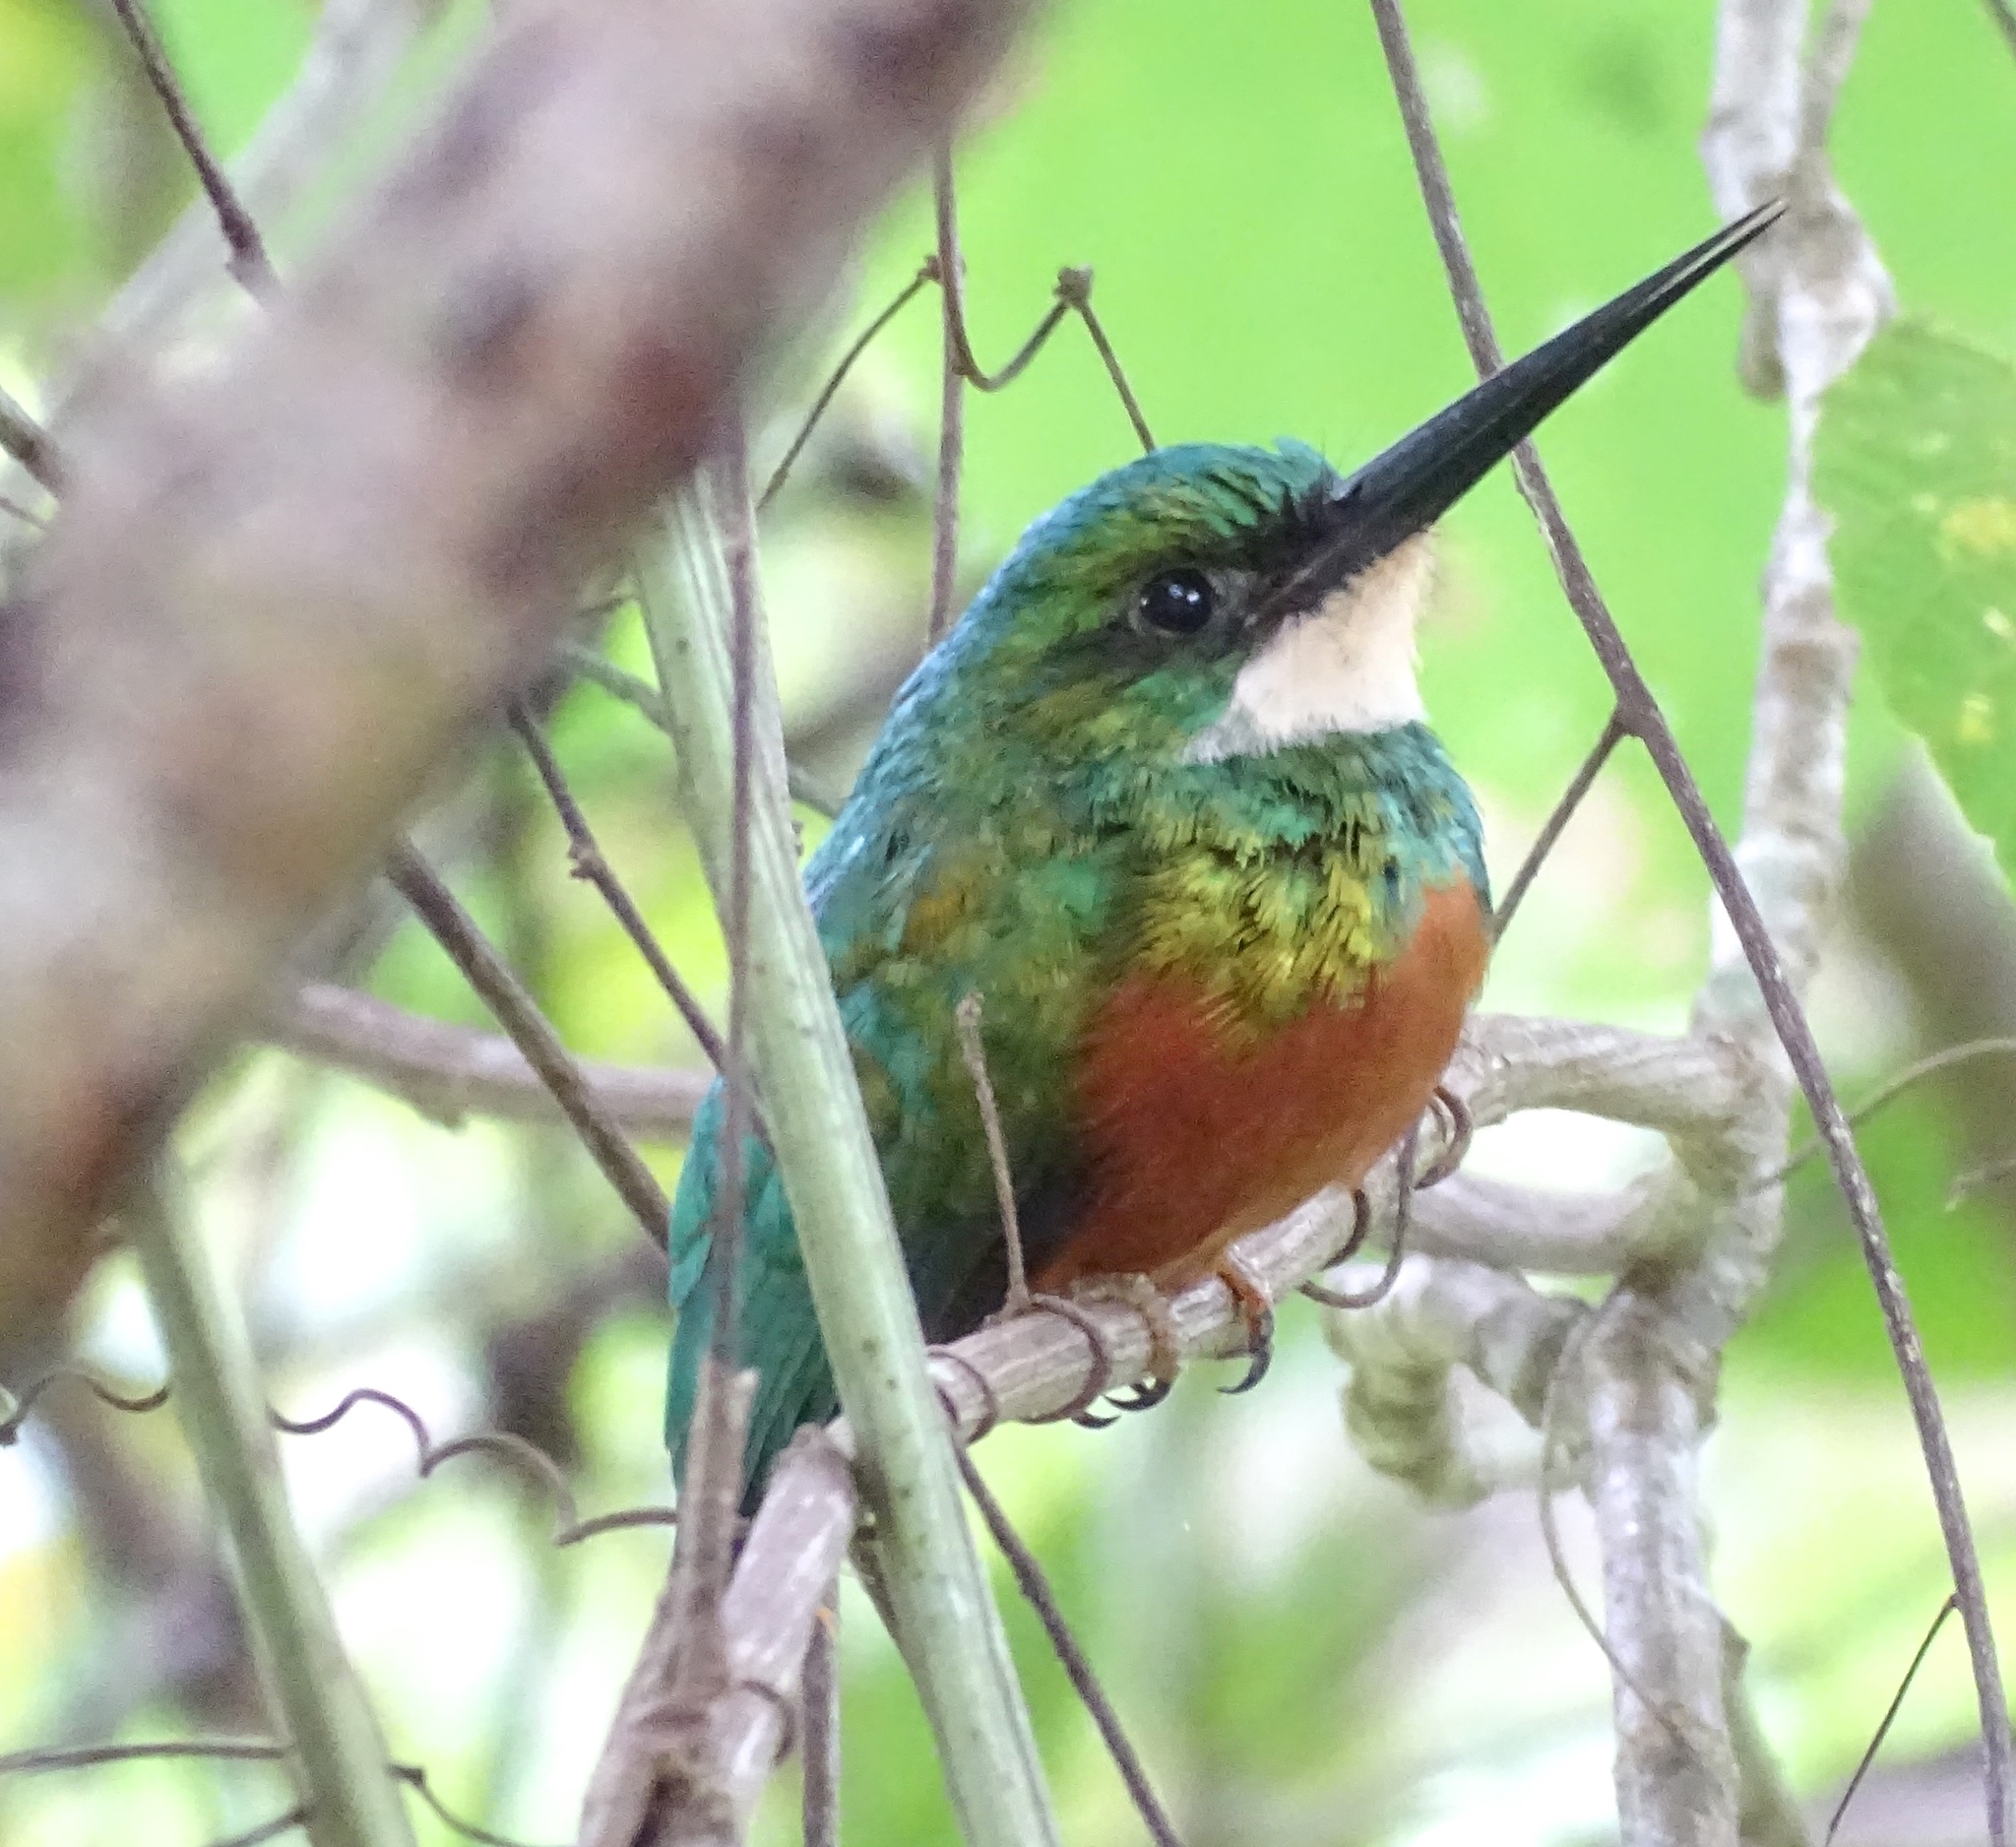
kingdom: Animalia
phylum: Chordata
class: Aves
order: Piciformes
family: Galbulidae
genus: Galbula
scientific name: Galbula ruficauda
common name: Rufous-tailed jacamar
